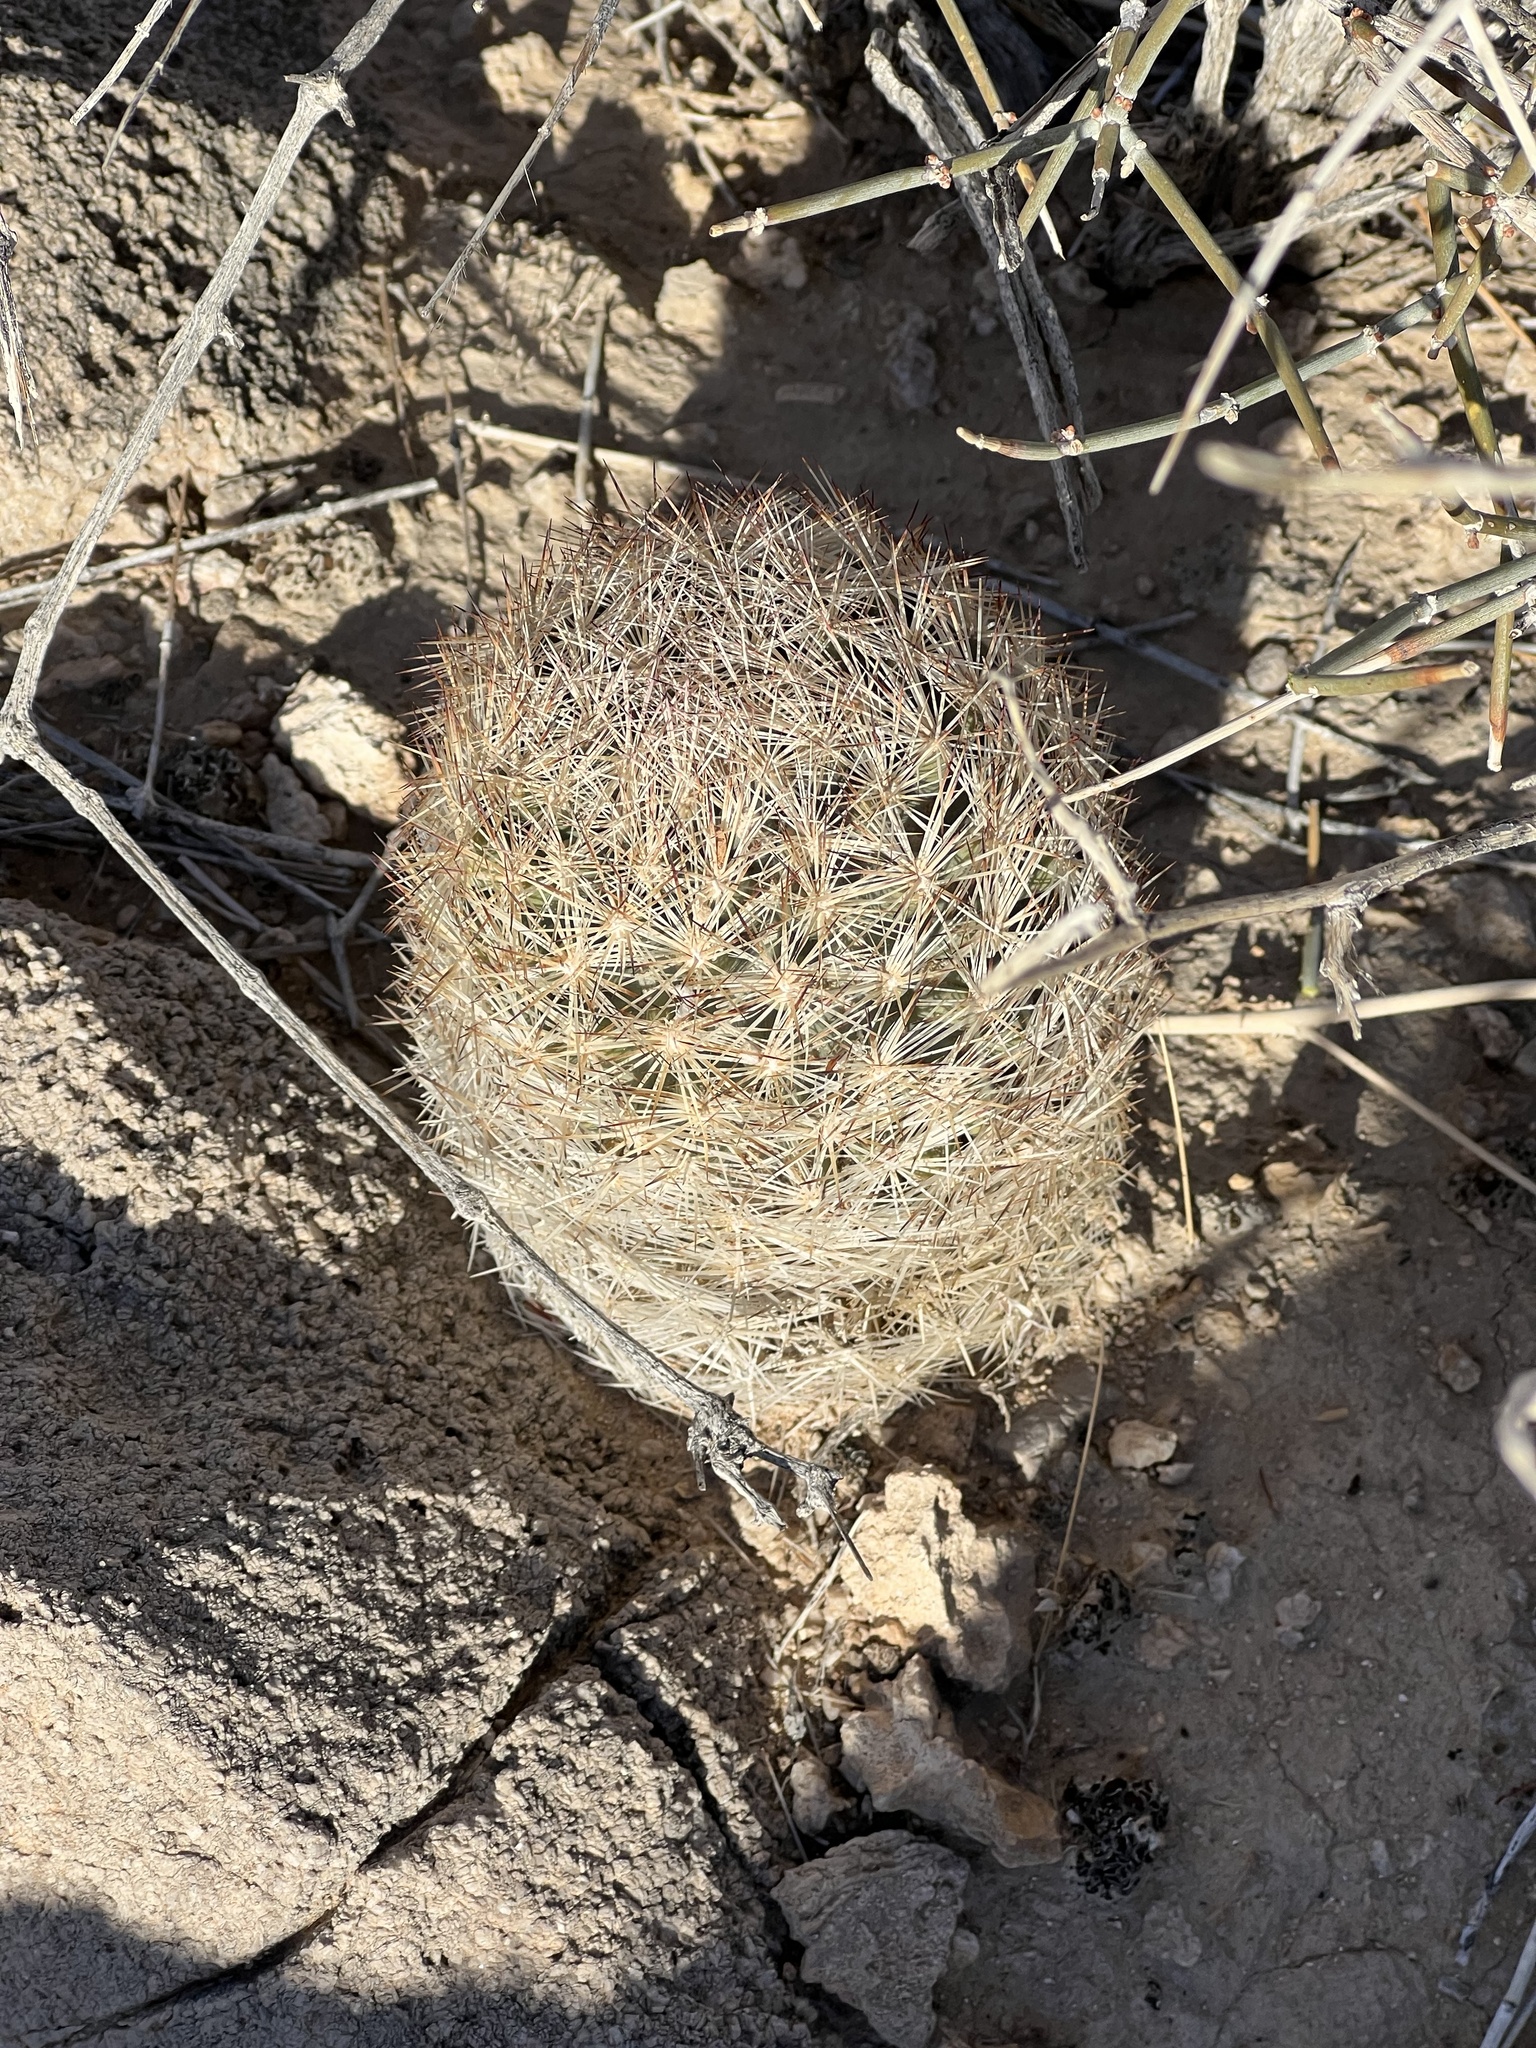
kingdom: Plantae
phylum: Tracheophyta
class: Magnoliopsida
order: Caryophyllales
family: Cactaceae
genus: Pelecyphora
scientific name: Pelecyphora dasyacantha
